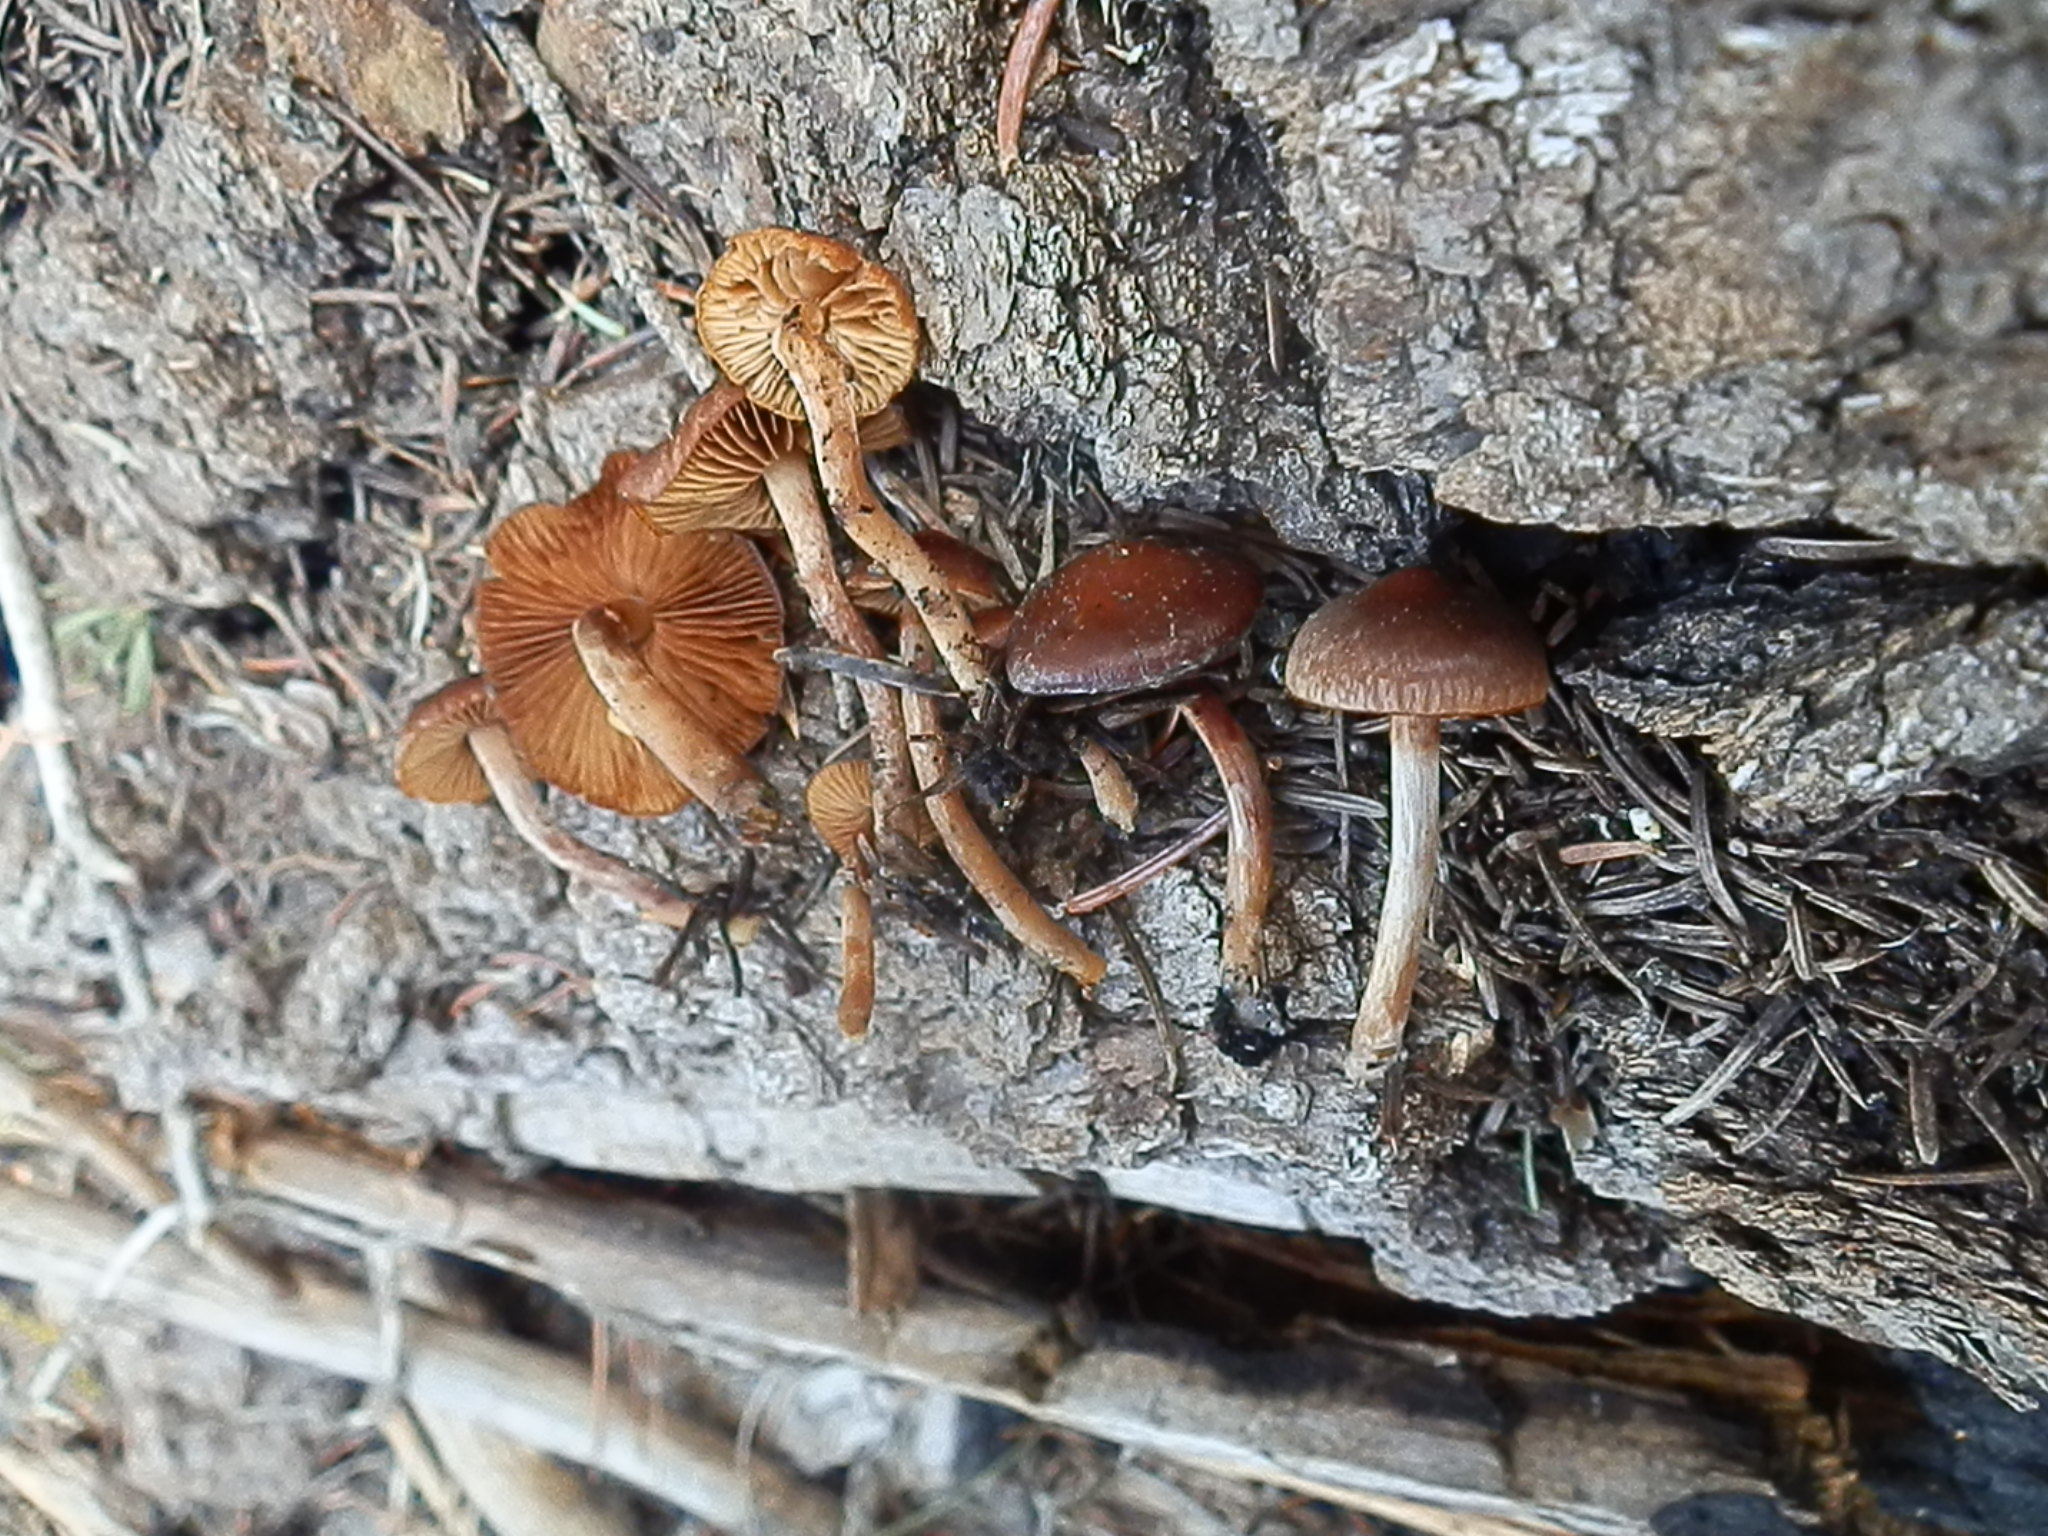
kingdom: Fungi
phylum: Basidiomycota
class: Agaricomycetes
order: Agaricales
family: Crassisporiaceae
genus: Crassisporium
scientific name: Crassisporium funariophilum
